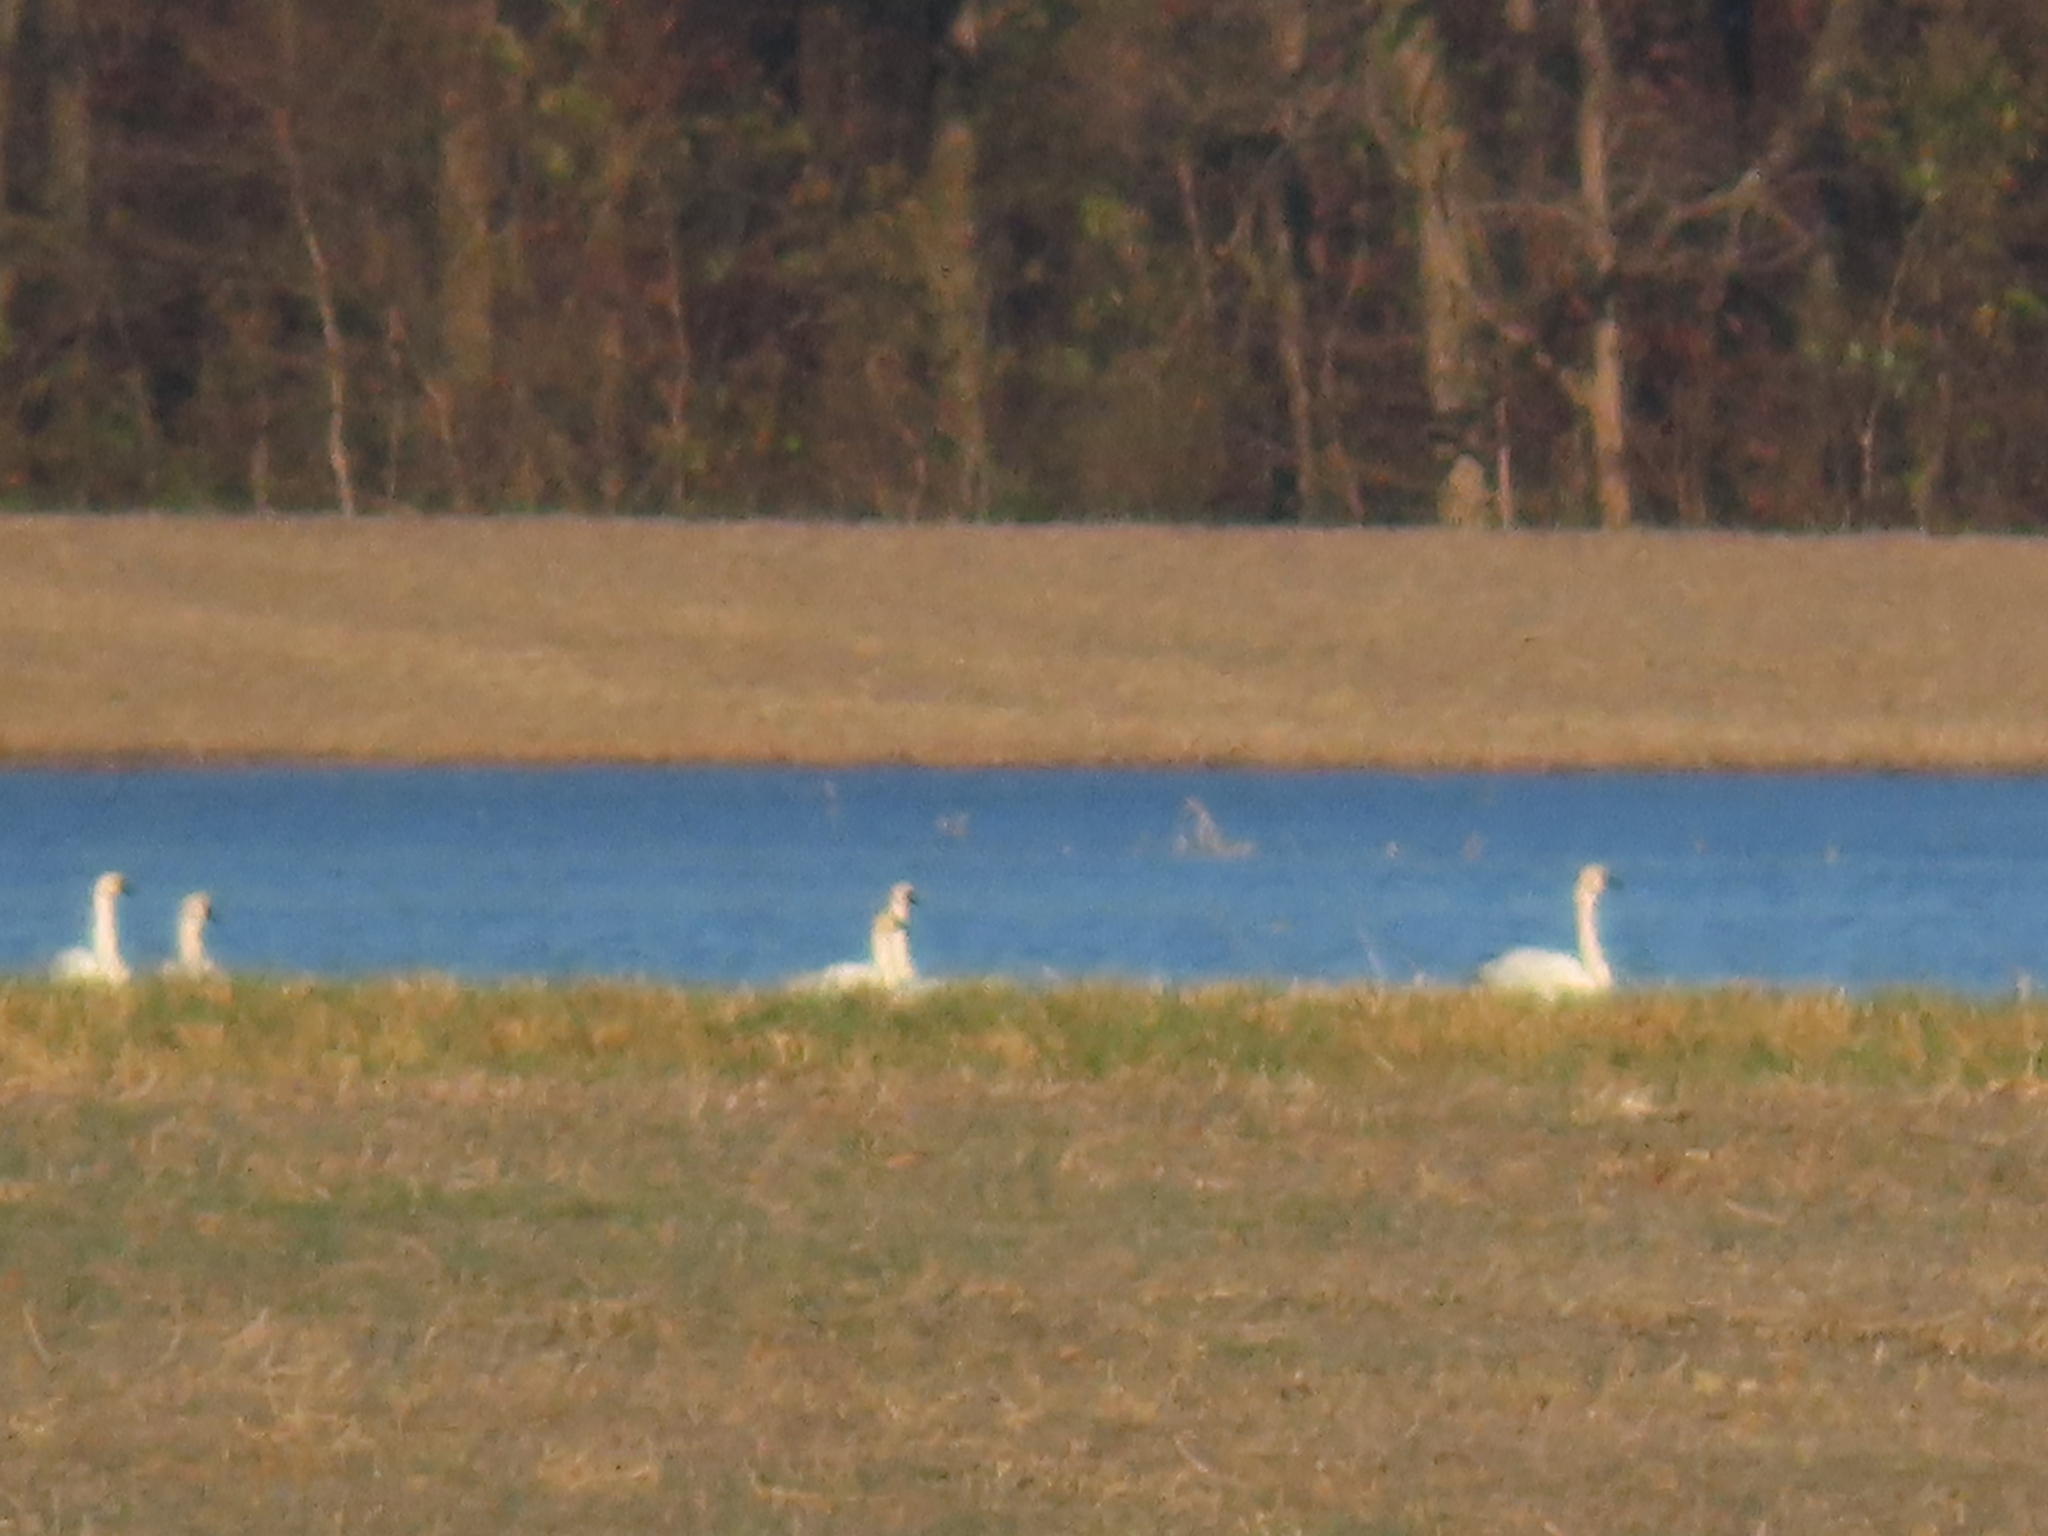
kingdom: Animalia
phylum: Chordata
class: Aves
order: Anseriformes
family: Anatidae
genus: Cygnus
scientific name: Cygnus columbianus
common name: Tundra swan
